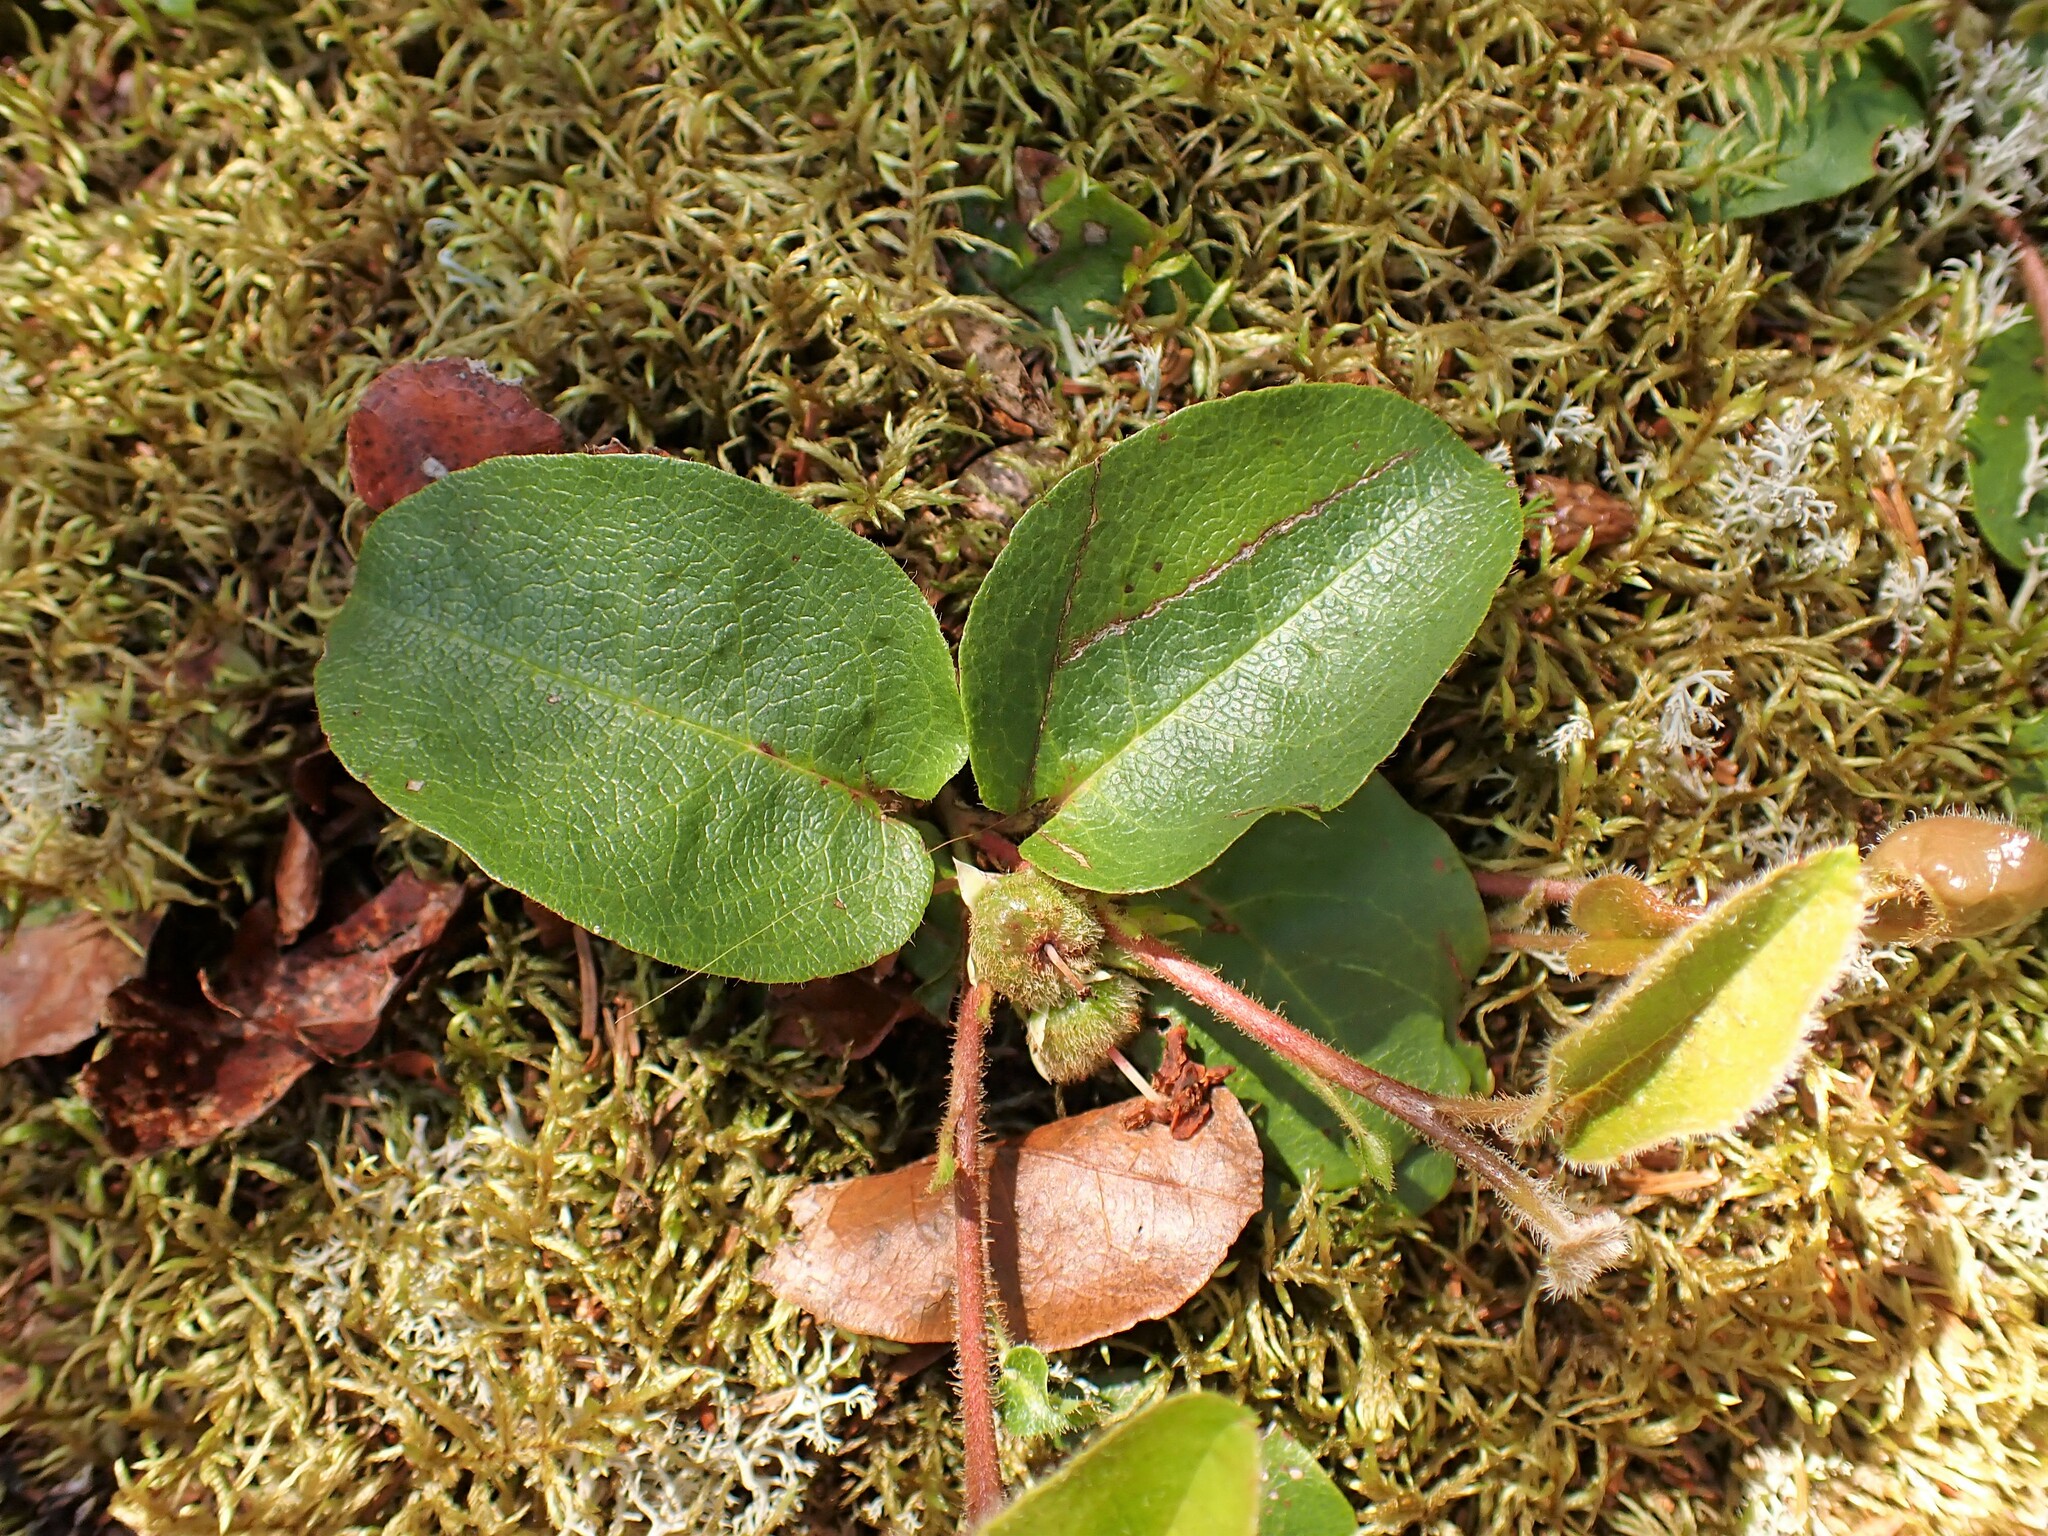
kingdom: Plantae
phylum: Tracheophyta
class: Magnoliopsida
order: Ericales
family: Ericaceae
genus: Epigaea
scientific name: Epigaea repens
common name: Gravelroot
